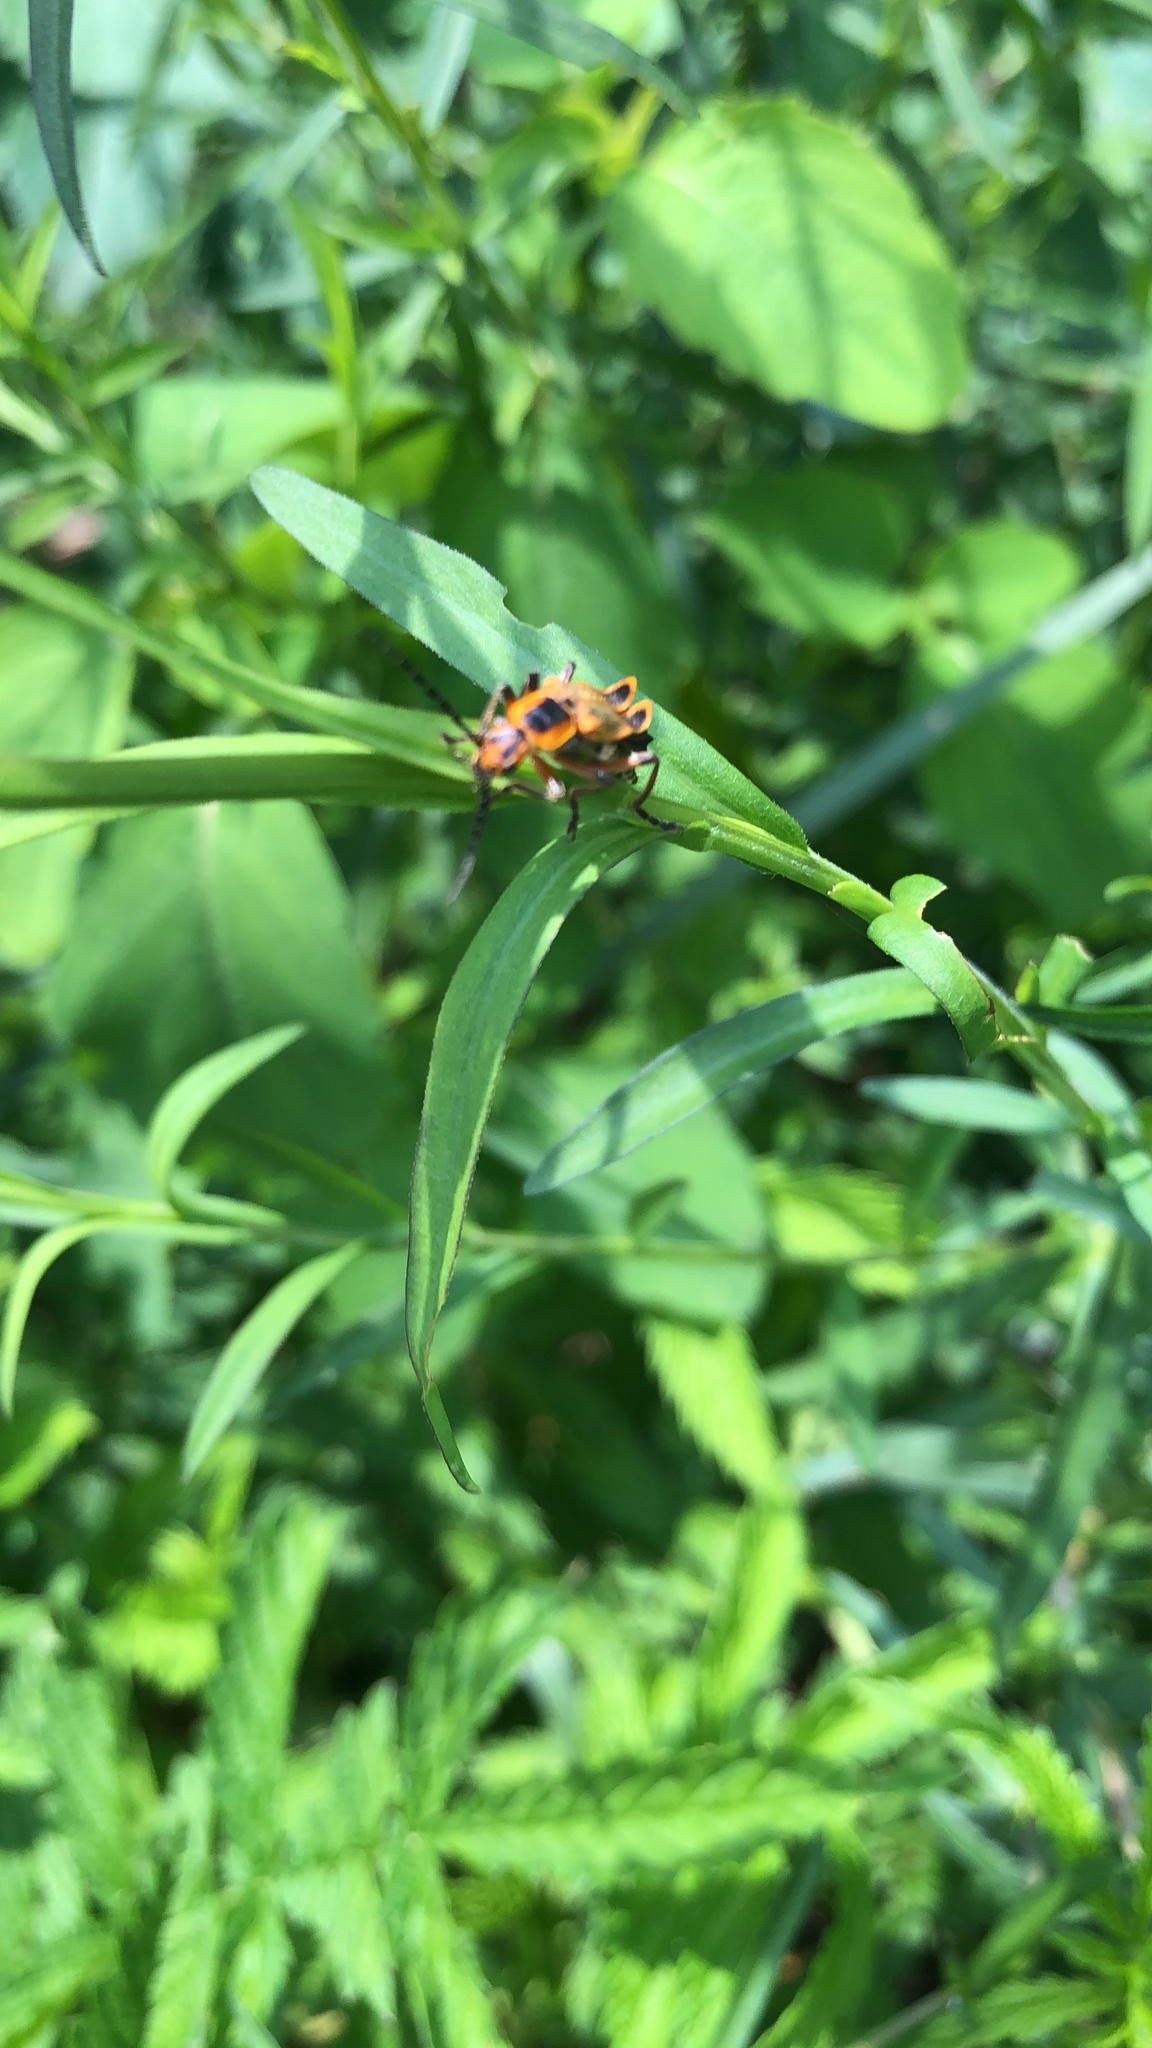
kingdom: Animalia
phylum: Arthropoda
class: Insecta
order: Coleoptera
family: Cantharidae
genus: Chauliognathus
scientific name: Chauliognathus marginatus
